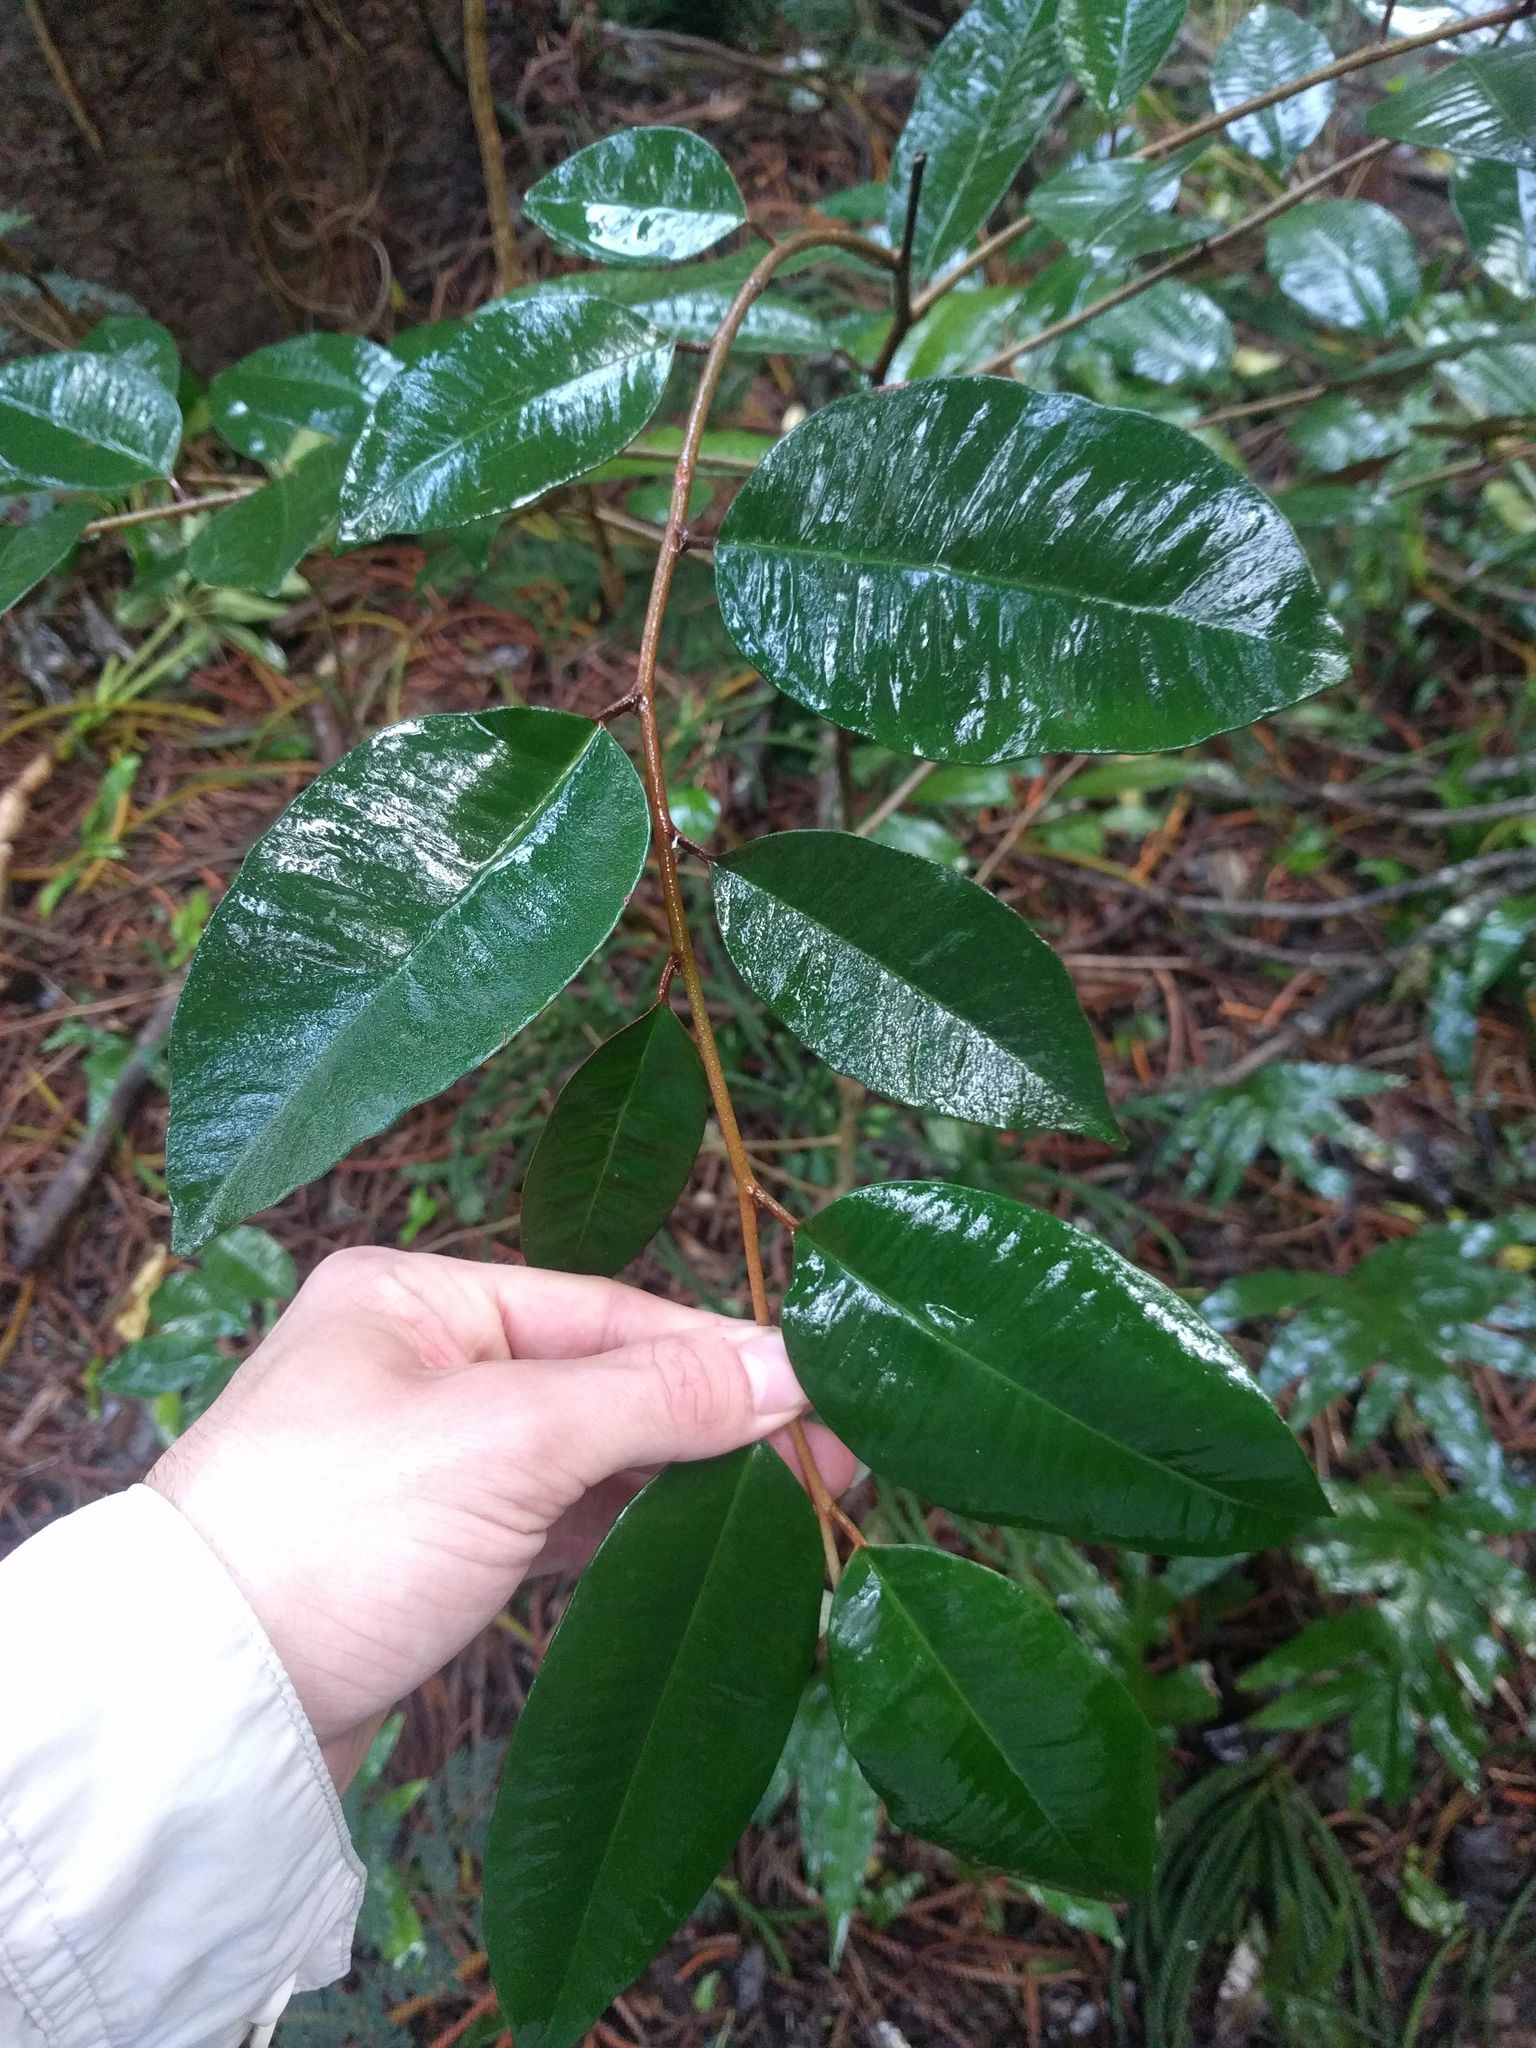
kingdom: Plantae
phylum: Tracheophyta
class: Magnoliopsida
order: Ericales
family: Sapotaceae
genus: Chrysophyllum
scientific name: Chrysophyllum oliviforme
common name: Satinleaf
